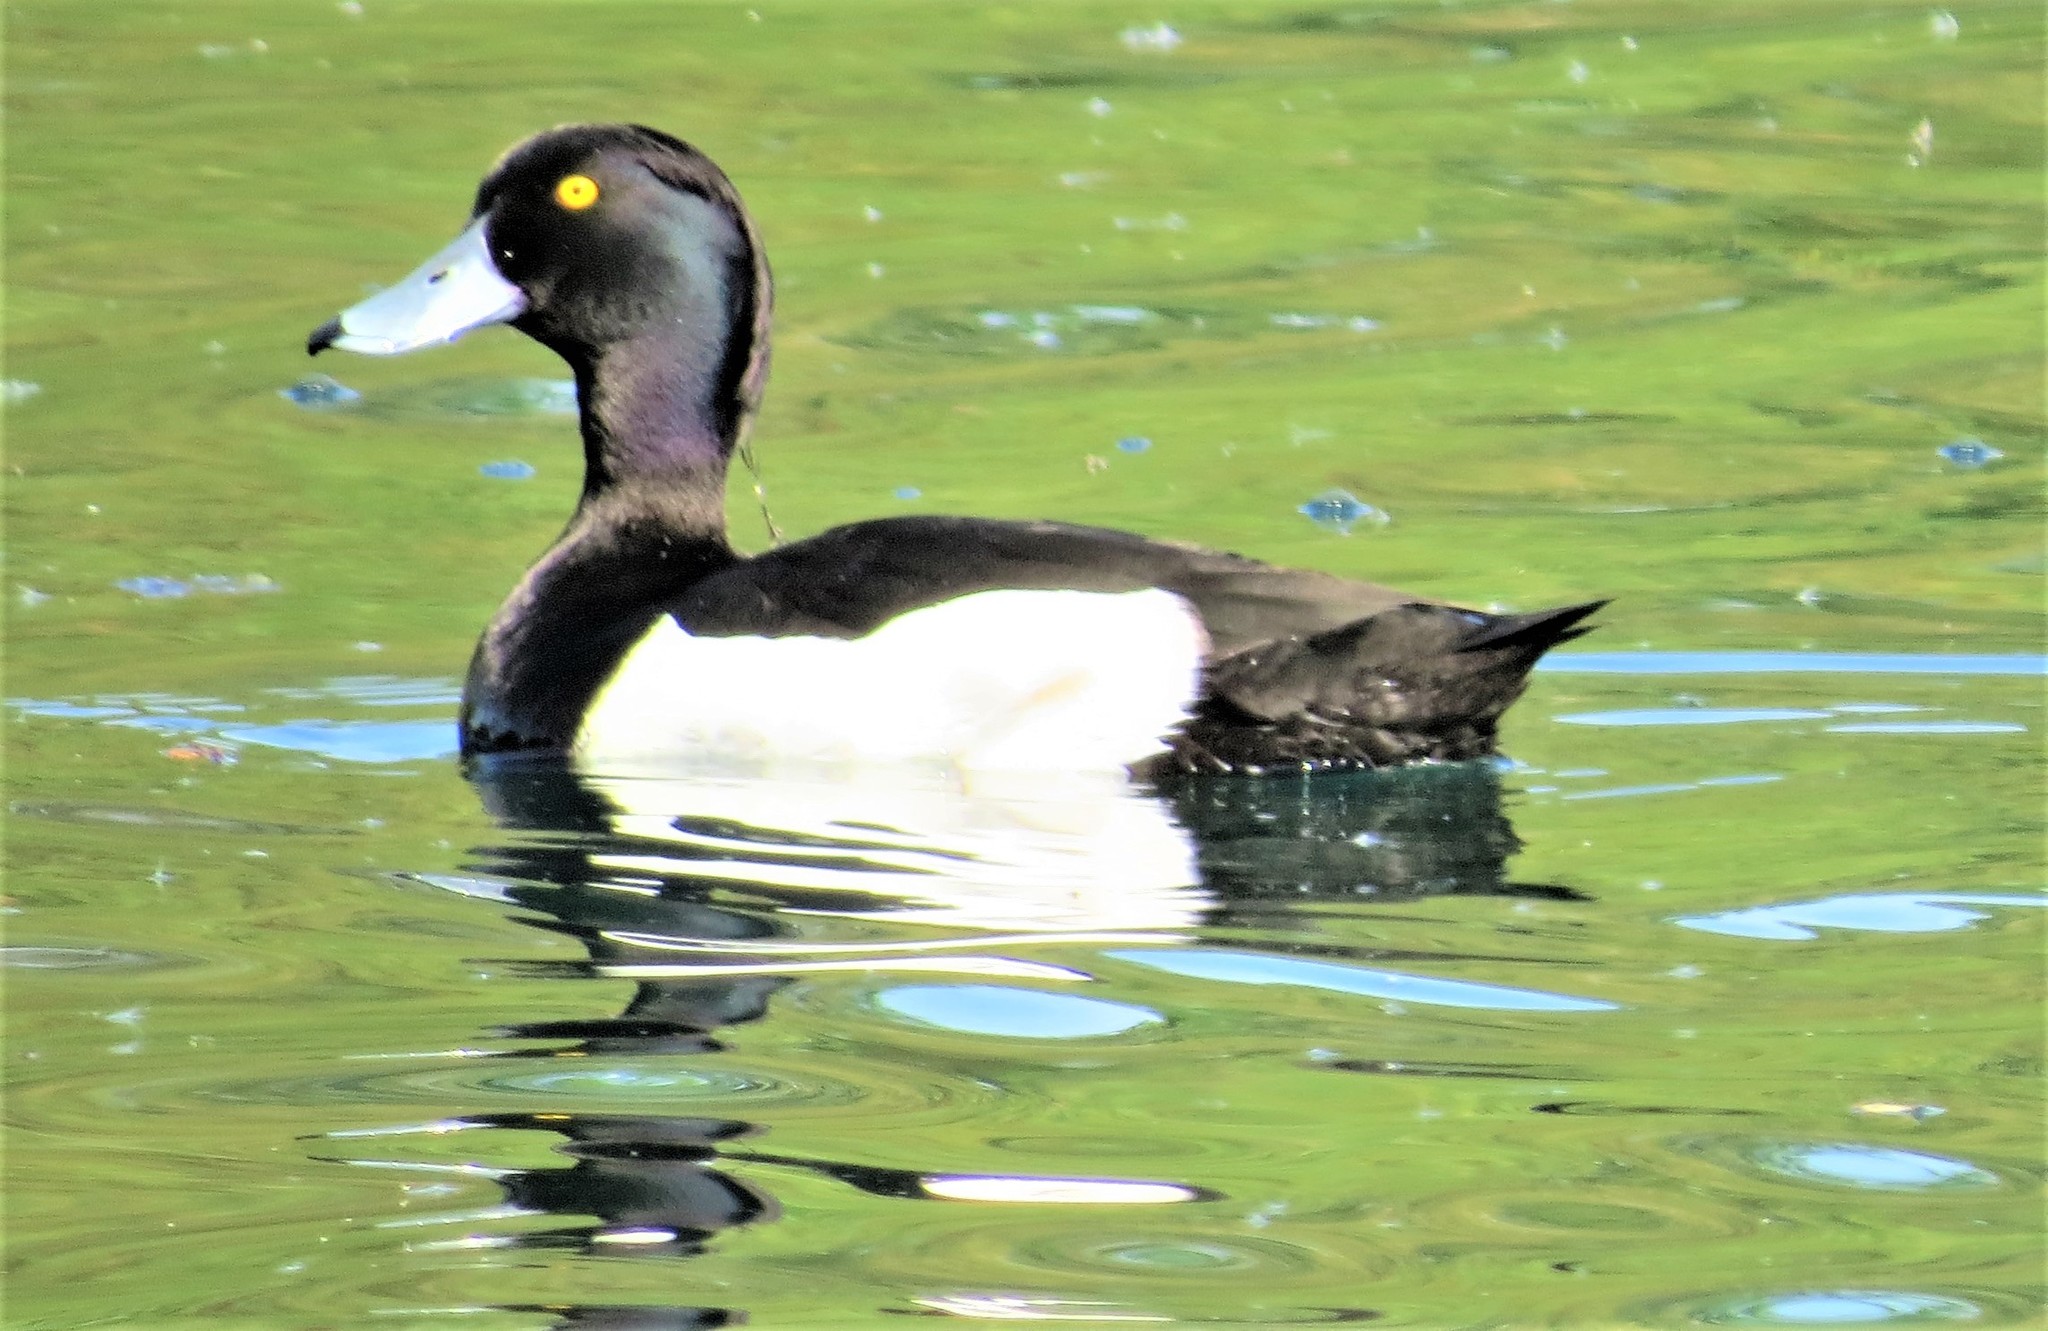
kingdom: Animalia
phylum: Chordata
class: Aves
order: Anseriformes
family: Anatidae
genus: Aythya
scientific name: Aythya fuligula
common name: Tufted duck
